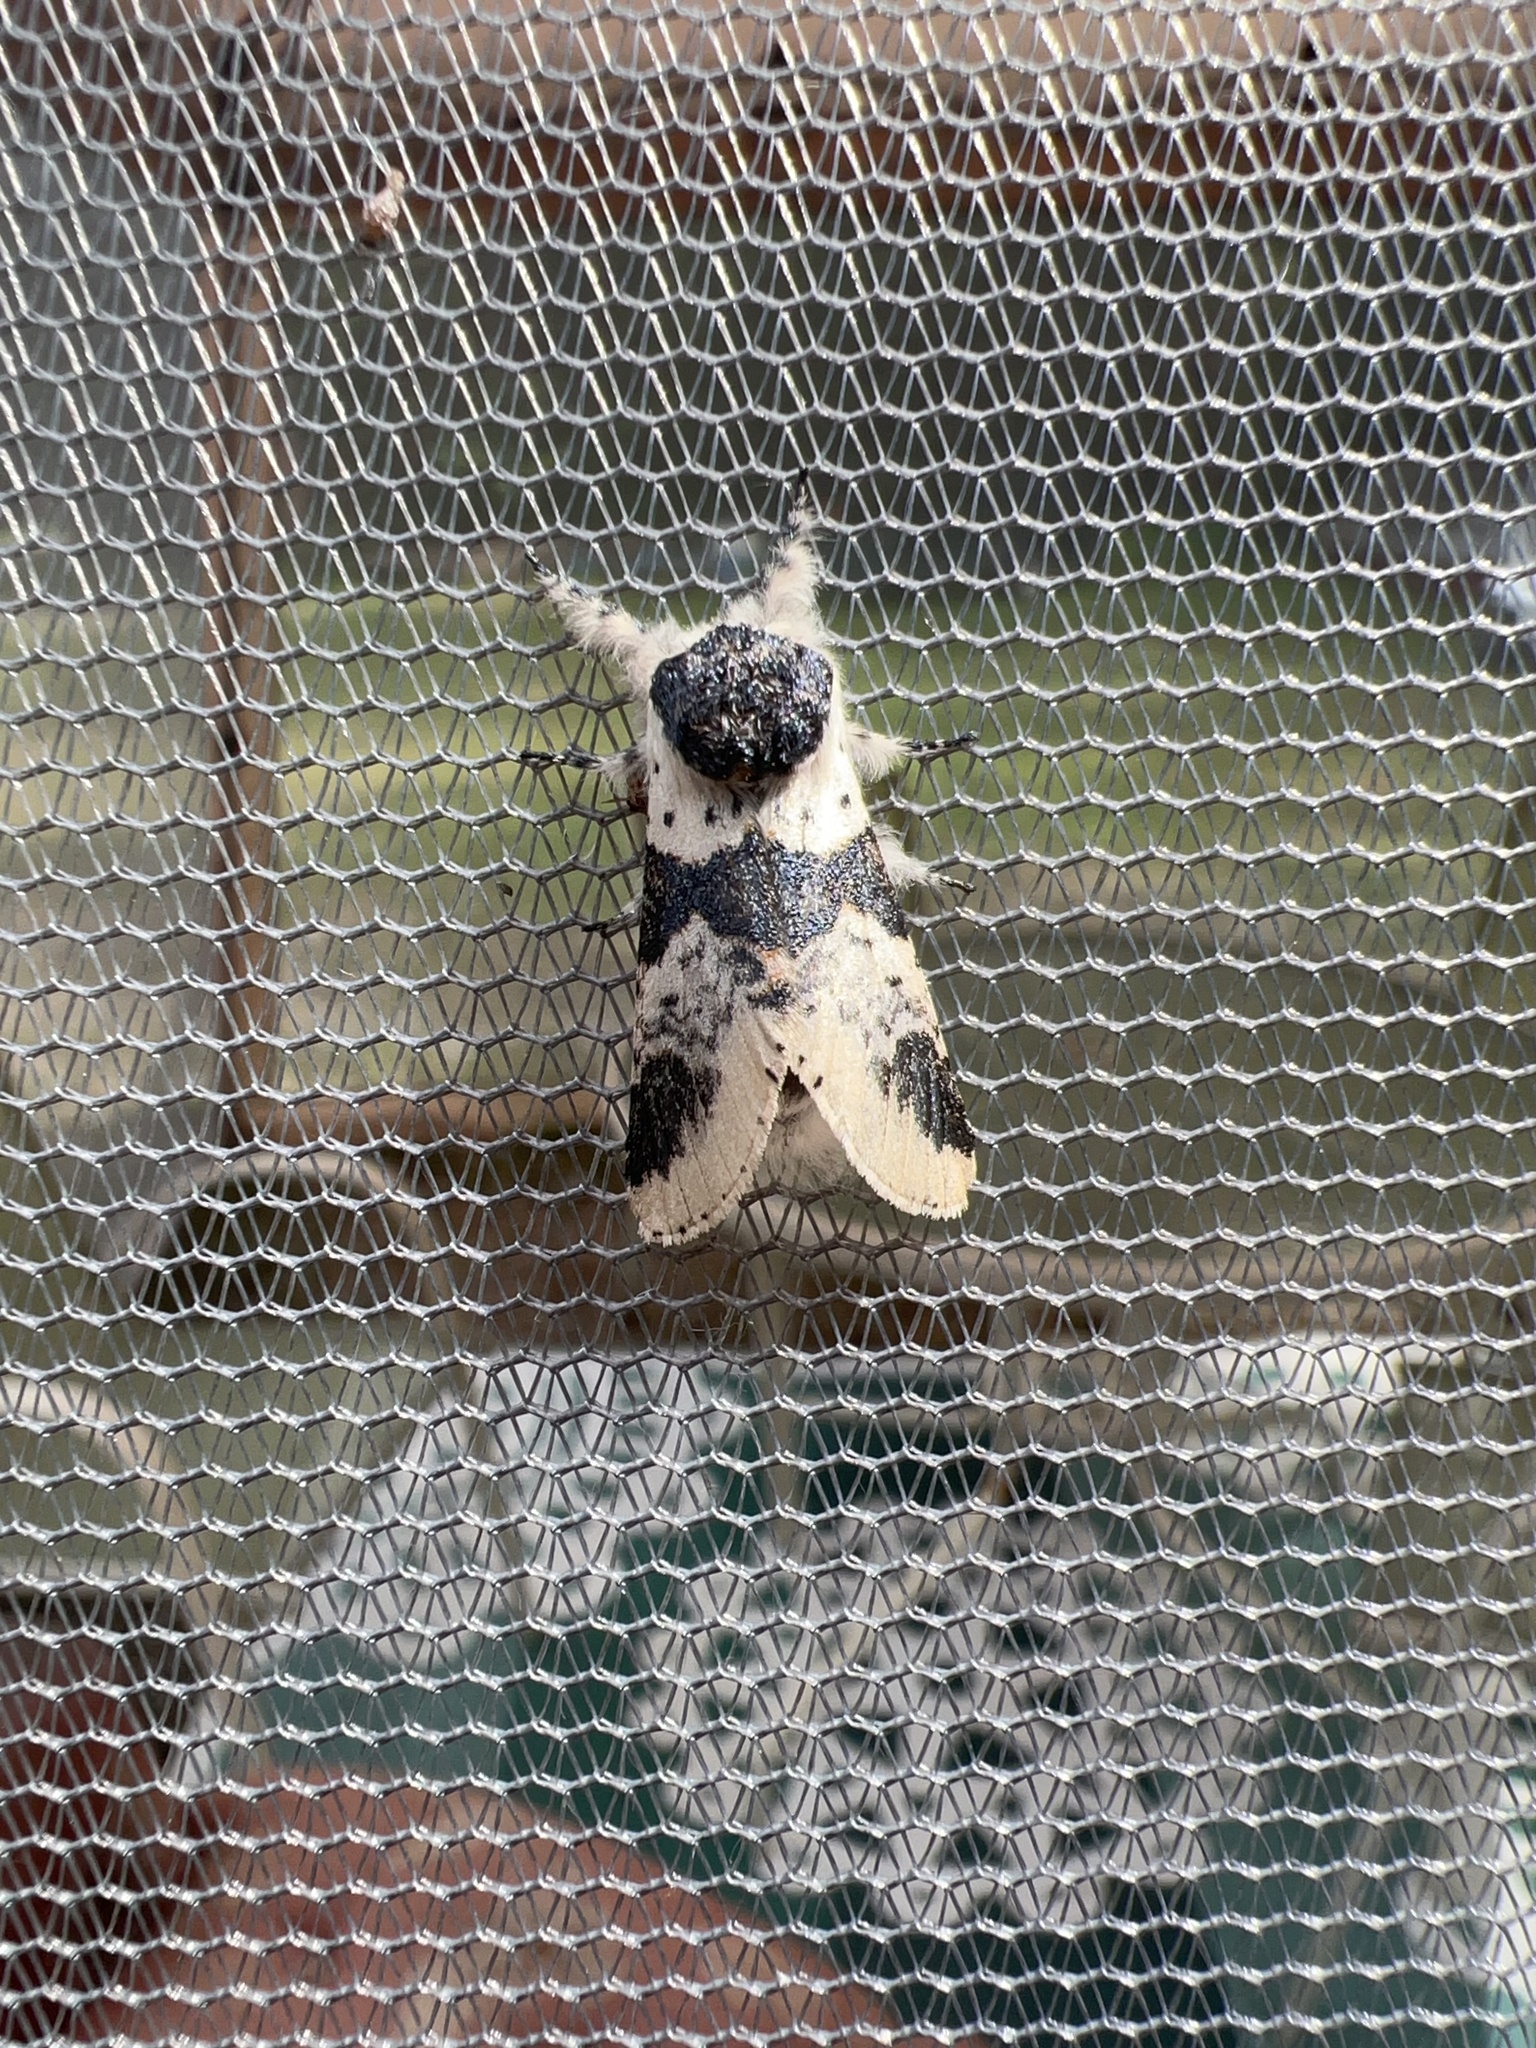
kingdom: Animalia
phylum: Arthropoda
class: Insecta
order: Lepidoptera
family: Notodontidae
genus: Furcula
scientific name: Furcula modesta
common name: Modest furcula moth
